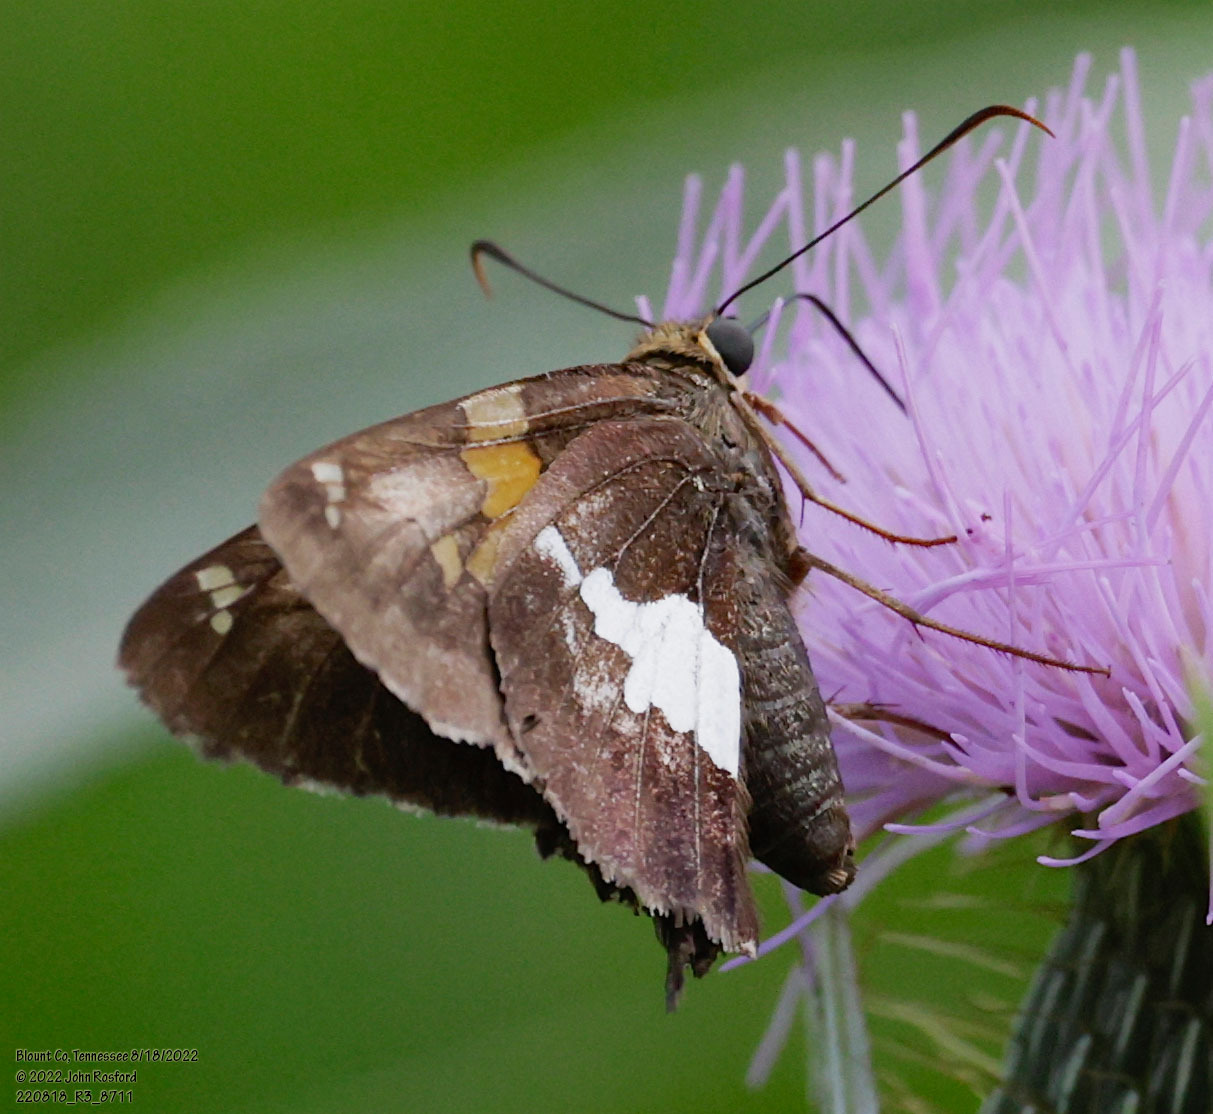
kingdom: Animalia
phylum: Arthropoda
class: Insecta
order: Lepidoptera
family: Hesperiidae
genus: Epargyreus
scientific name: Epargyreus clarus
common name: Silver-spotted skipper
